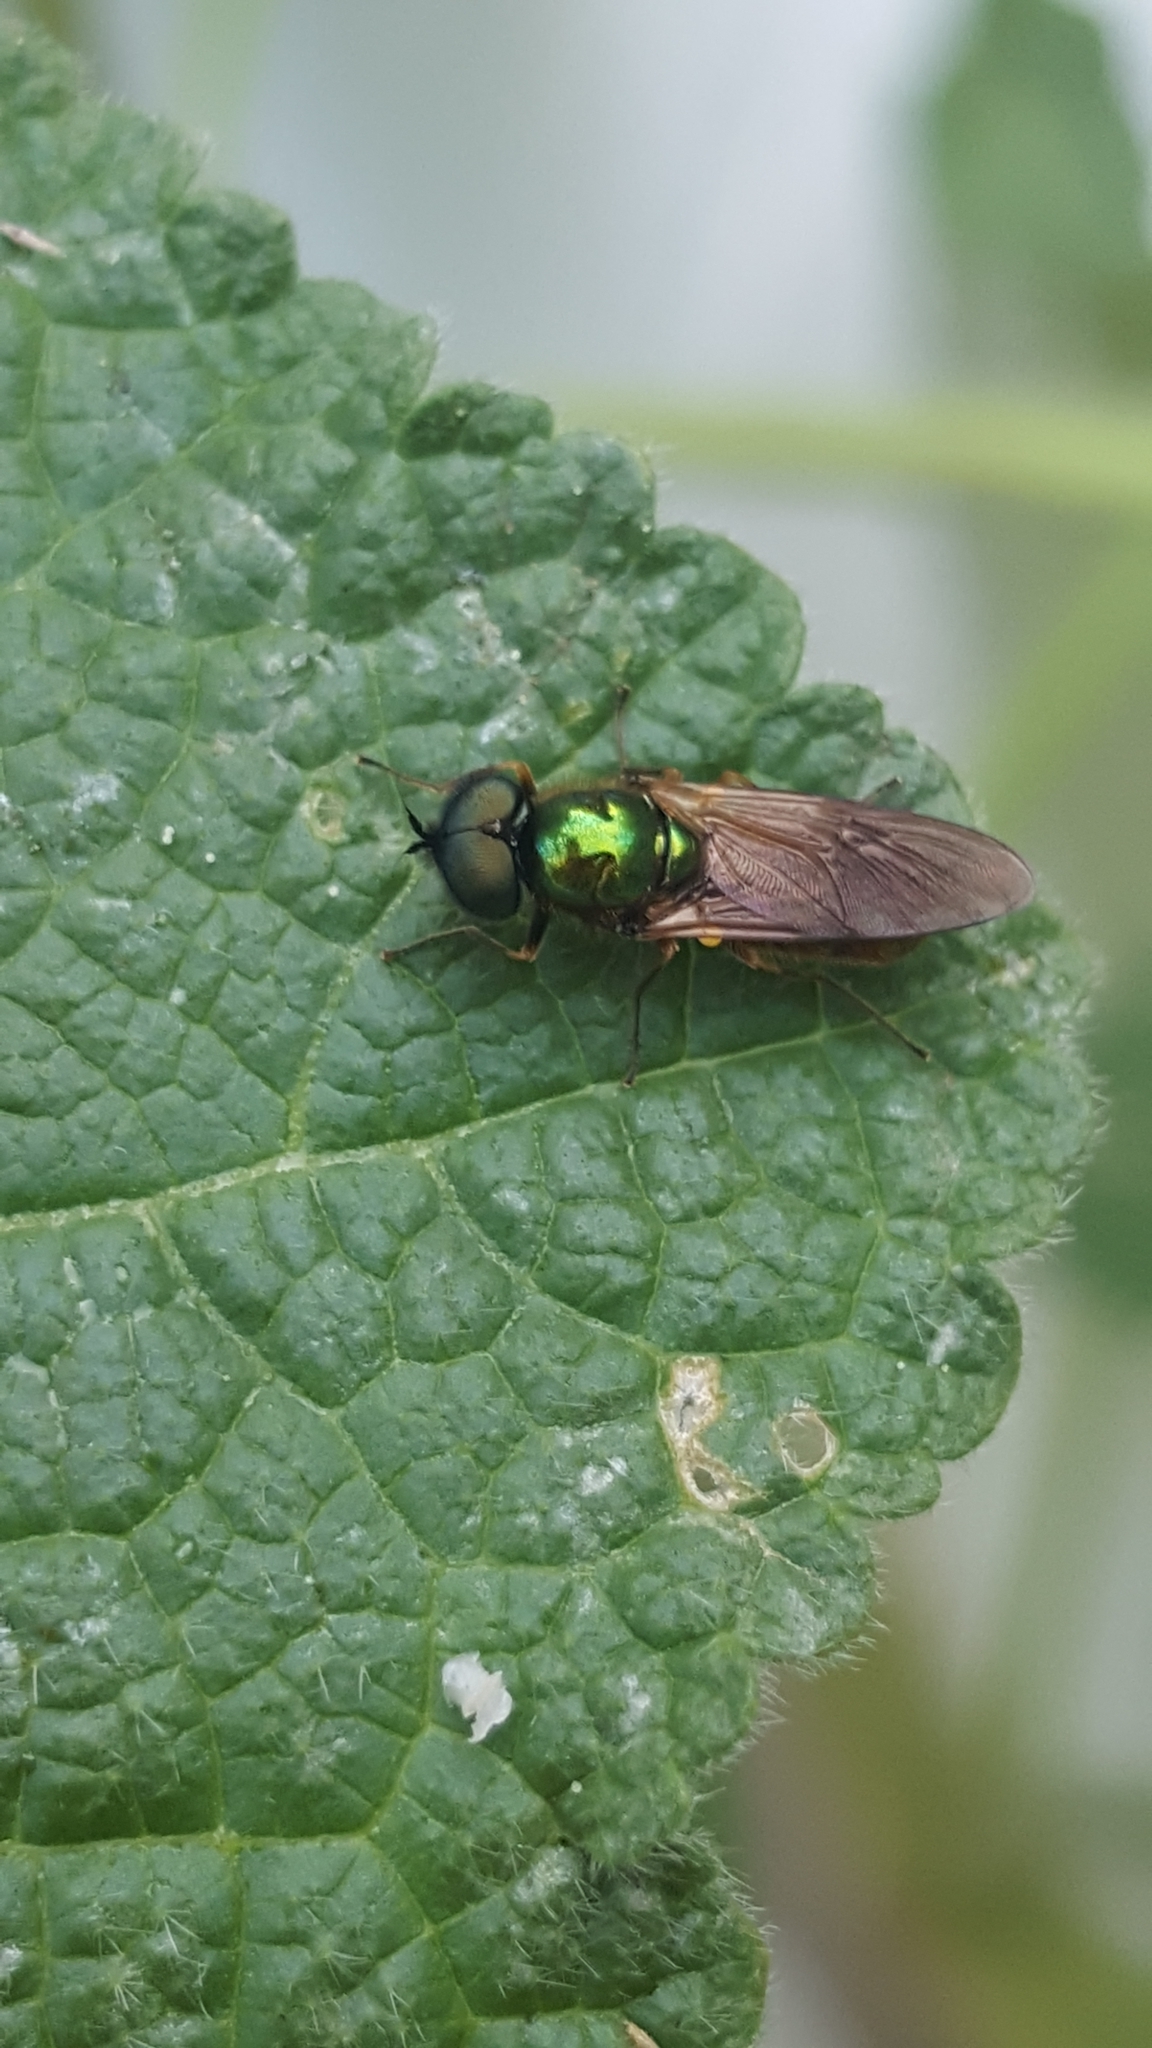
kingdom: Animalia
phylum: Arthropoda
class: Insecta
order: Diptera
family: Stratiomyidae
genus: Chloromyia
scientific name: Chloromyia formosa
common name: Soldier fly
